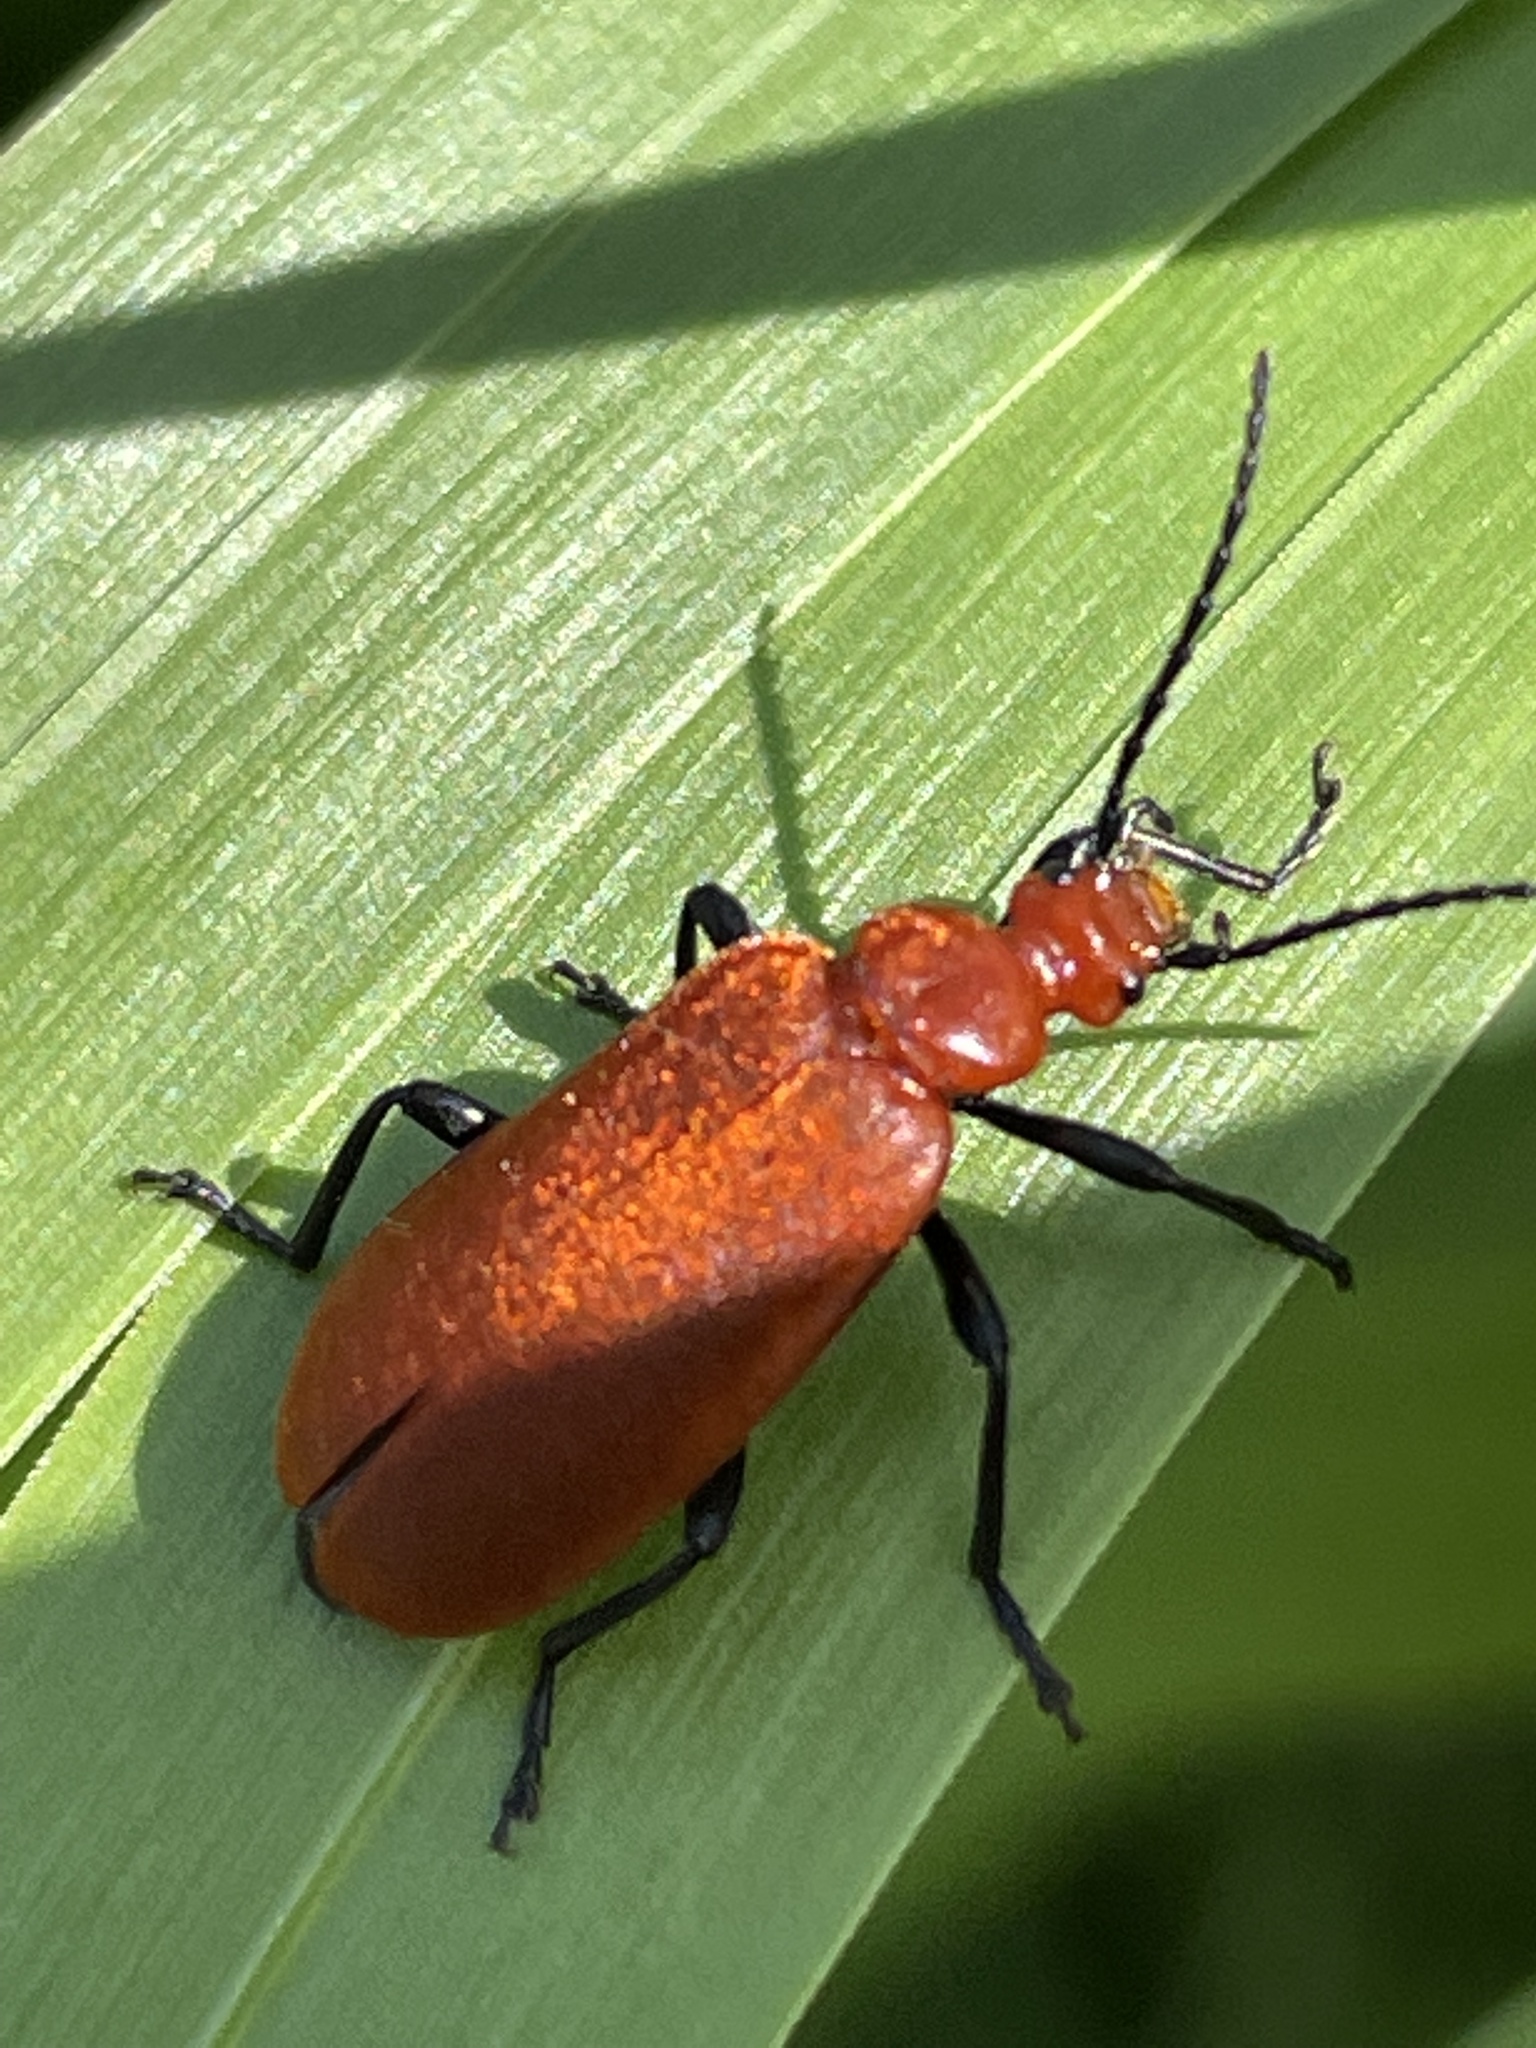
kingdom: Animalia
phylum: Arthropoda
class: Insecta
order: Coleoptera
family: Pyrochroidae
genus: Pyrochroa
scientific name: Pyrochroa serraticornis
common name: Red-headed cardinal beetle
